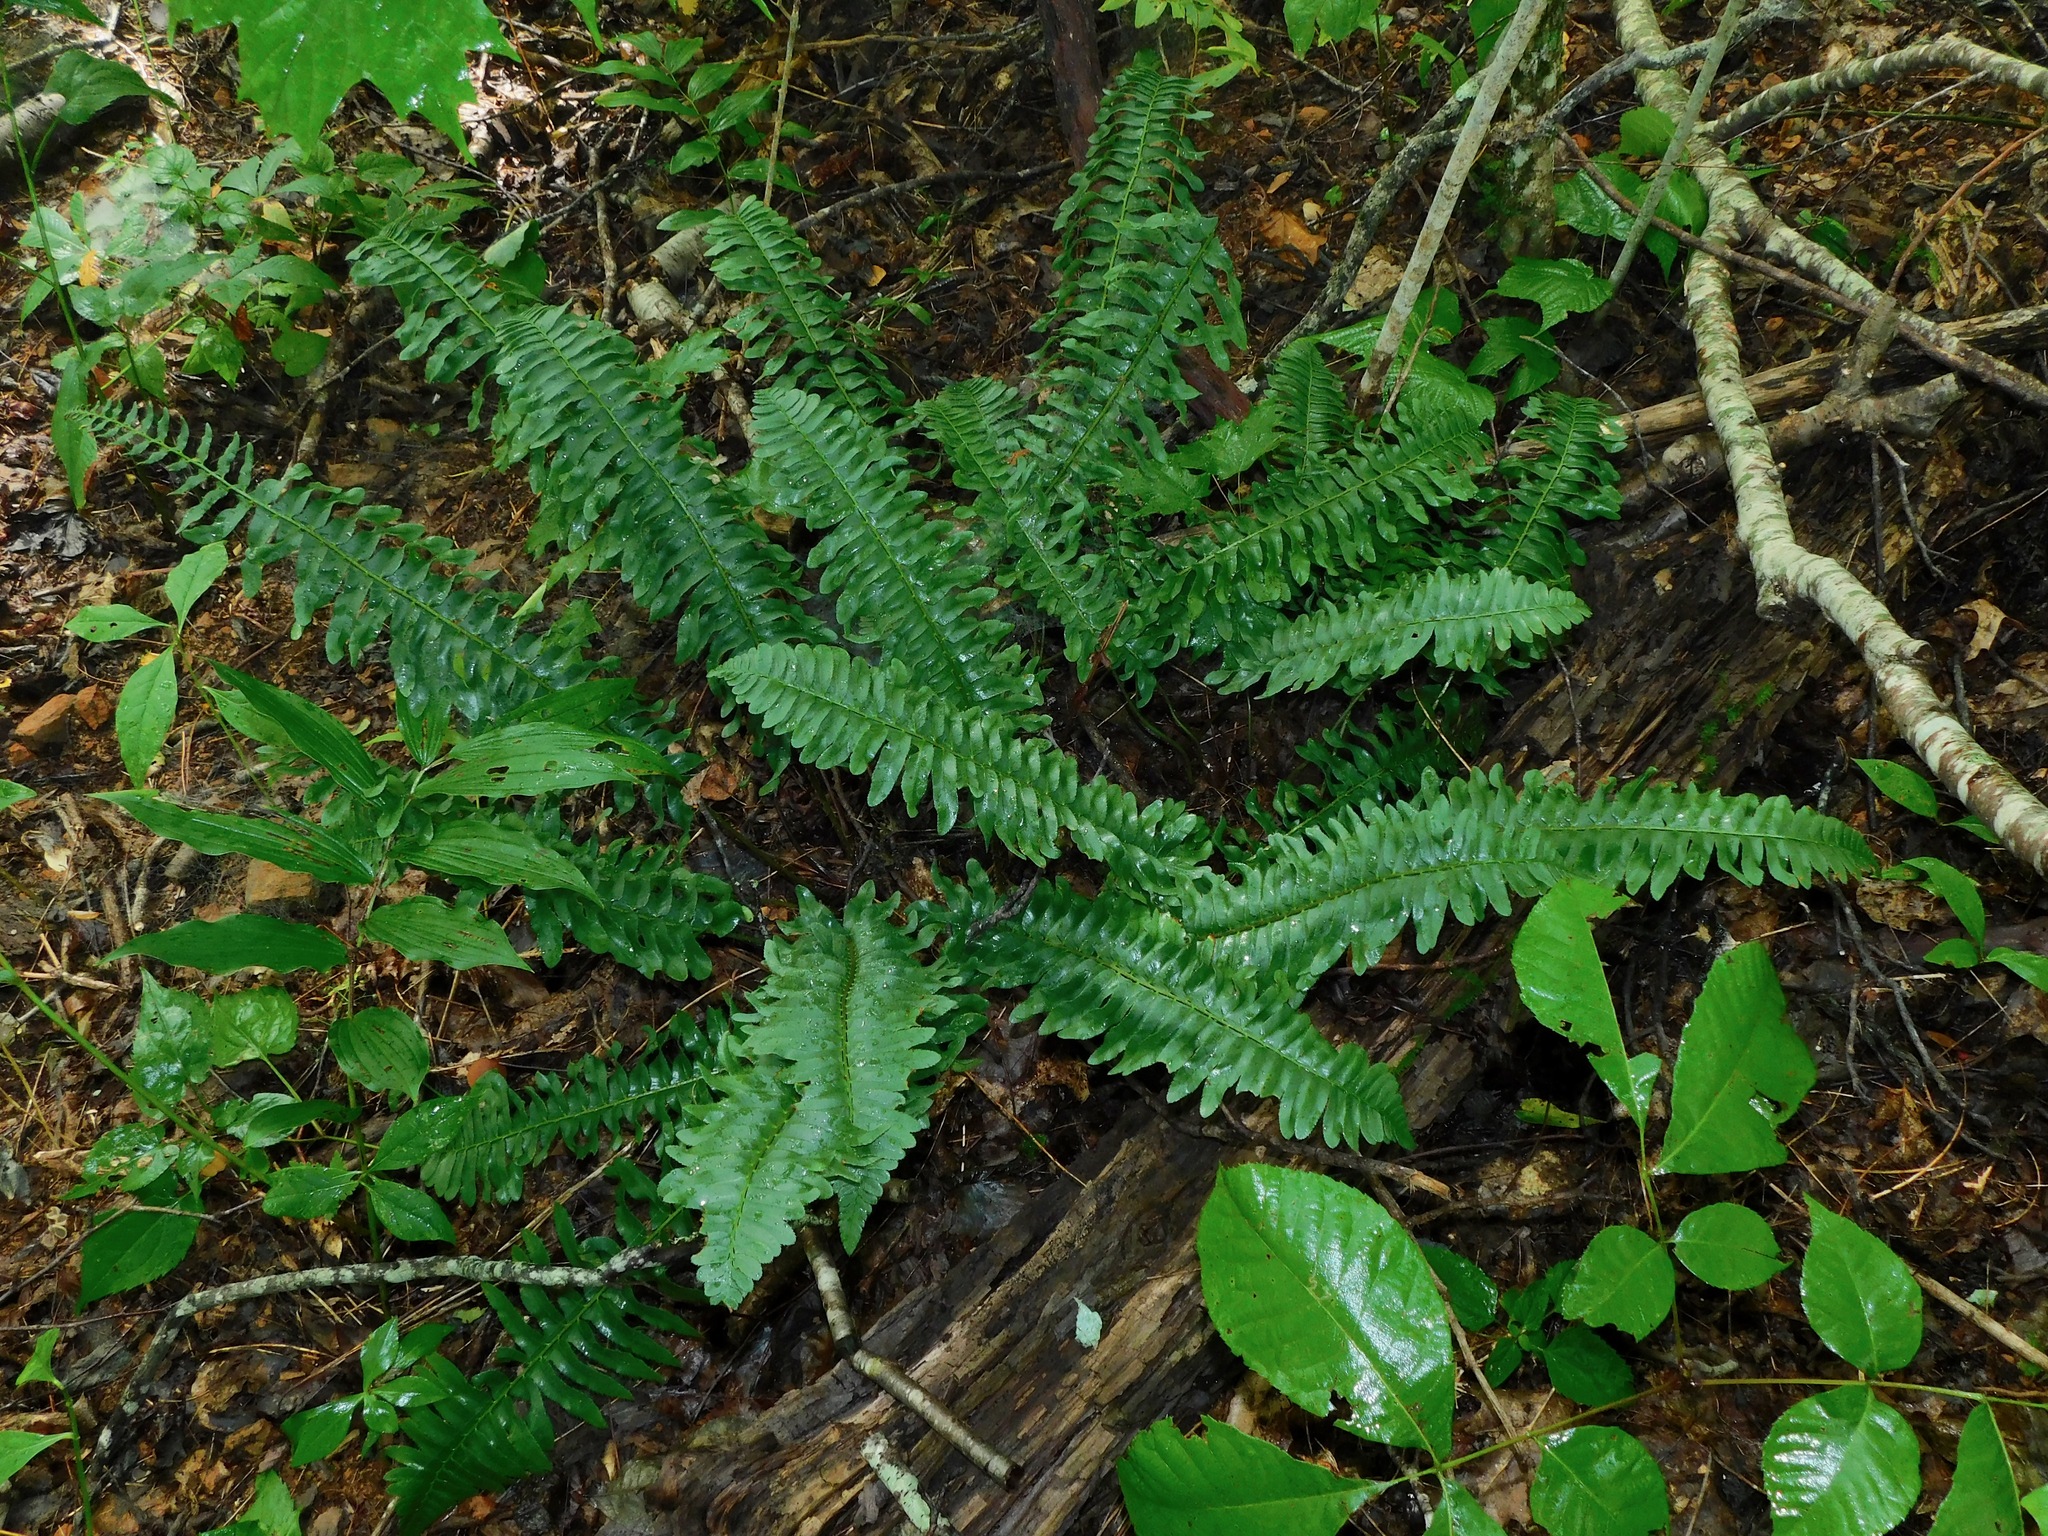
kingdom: Plantae
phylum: Tracheophyta
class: Polypodiopsida
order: Polypodiales
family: Dryopteridaceae
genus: Polystichum
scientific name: Polystichum acrostichoides
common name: Christmas fern
